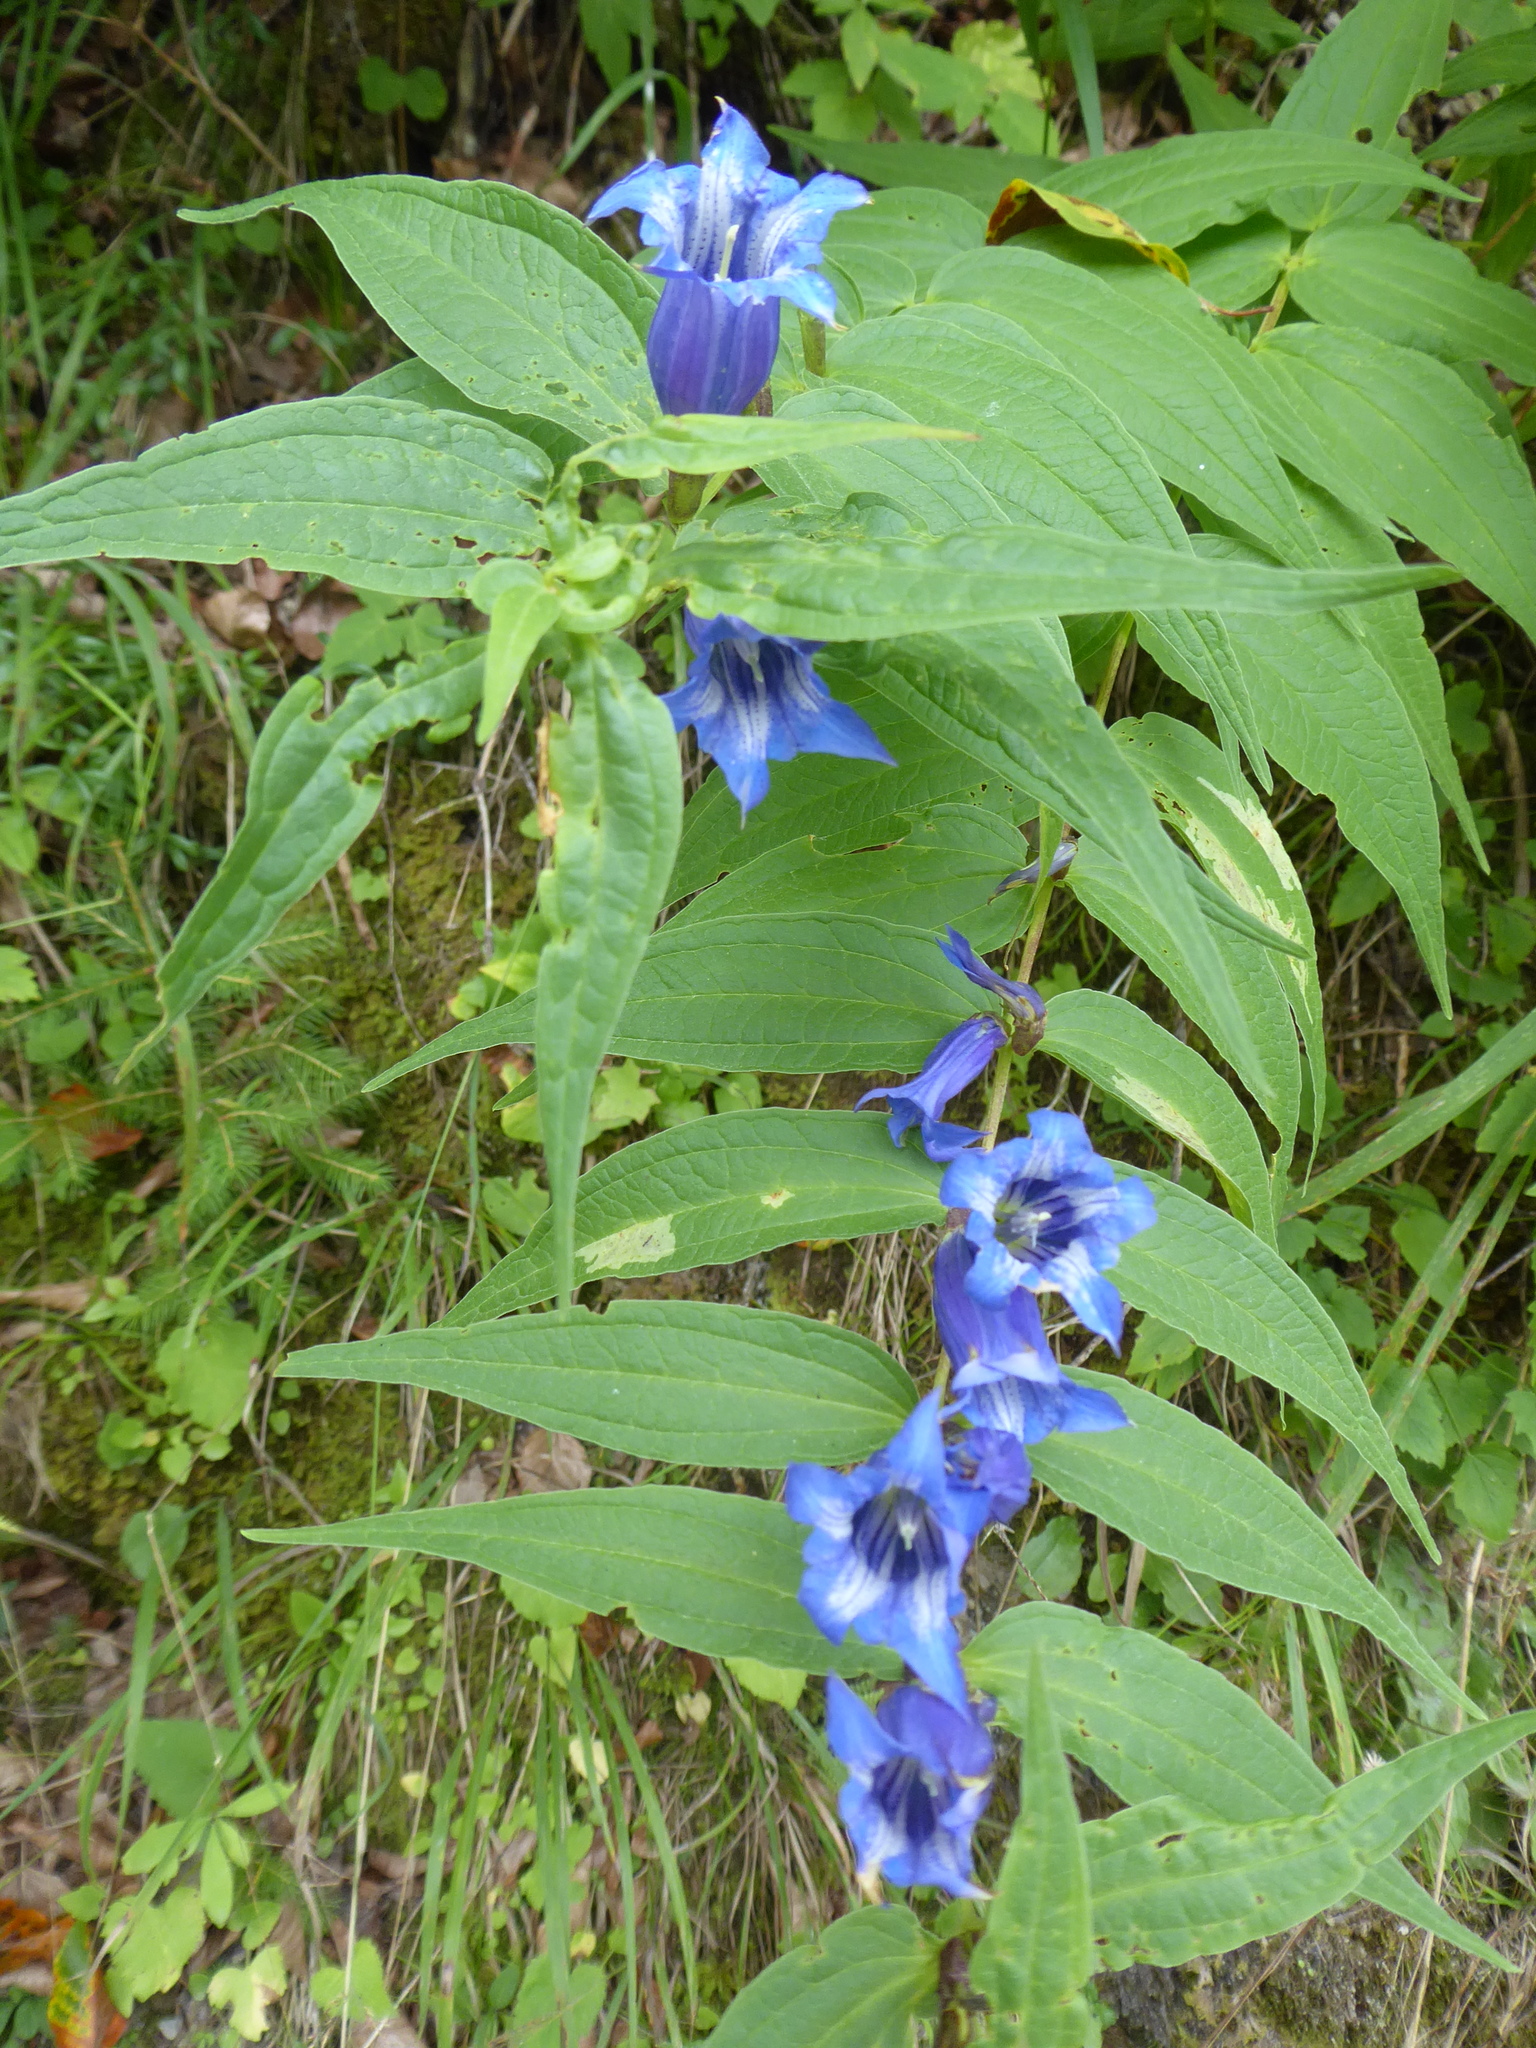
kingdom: Plantae
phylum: Tracheophyta
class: Magnoliopsida
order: Gentianales
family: Gentianaceae
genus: Gentiana
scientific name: Gentiana asclepiadea
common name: Willow gentian
